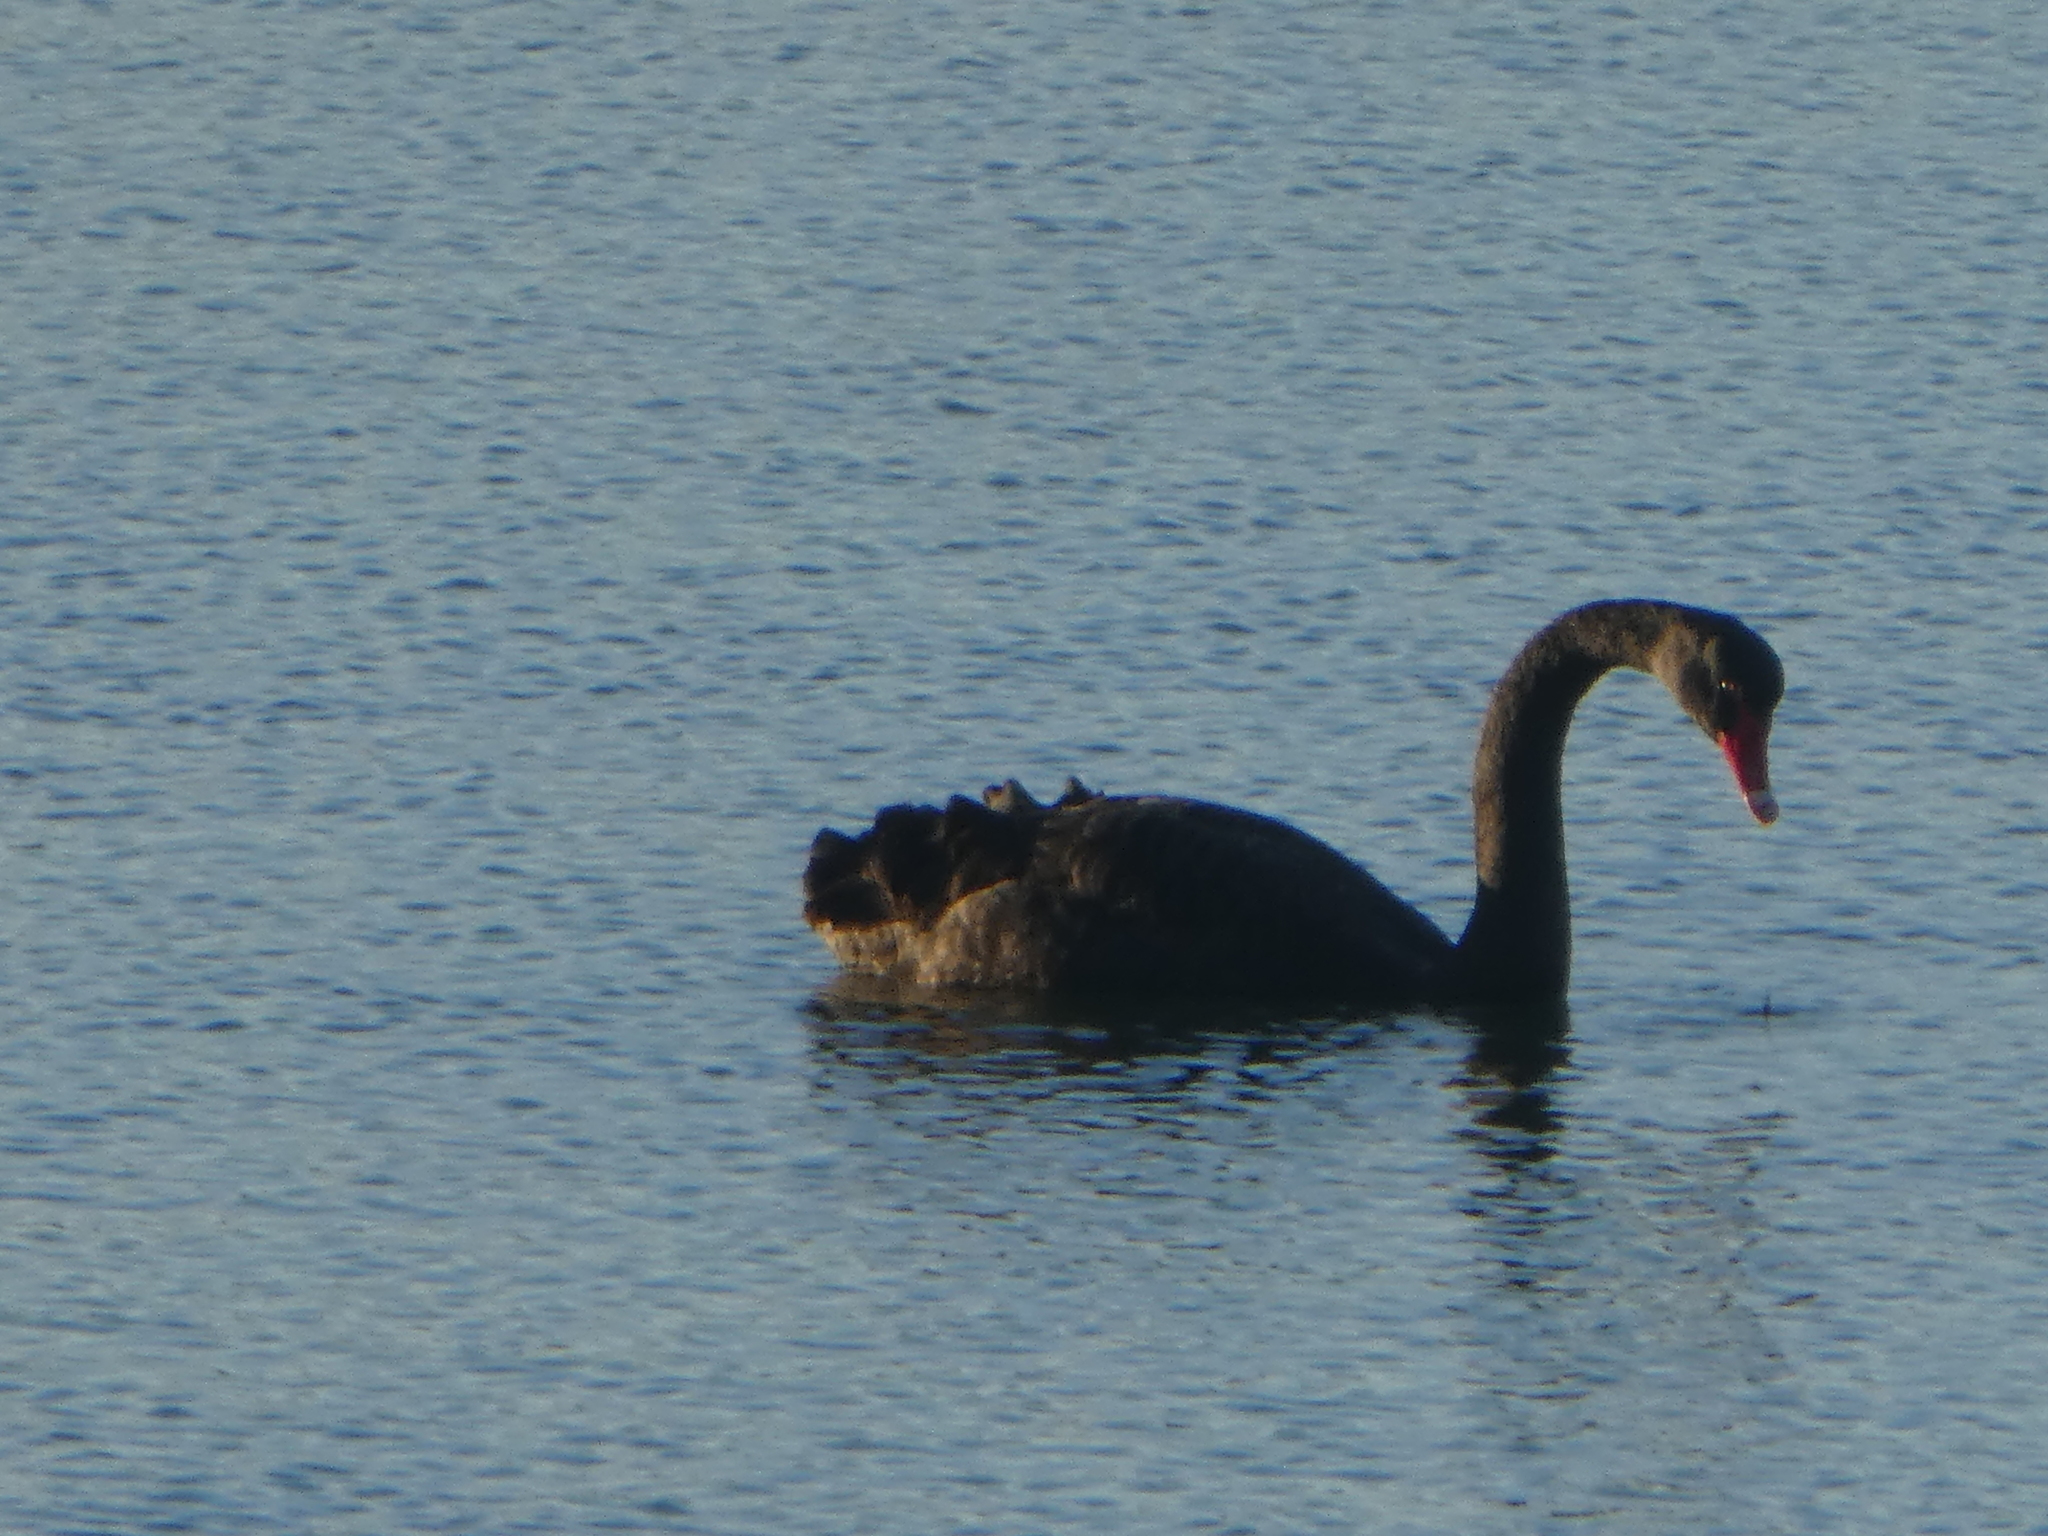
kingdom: Animalia
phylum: Chordata
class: Aves
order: Anseriformes
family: Anatidae
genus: Cygnus
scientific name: Cygnus atratus
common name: Black swan
